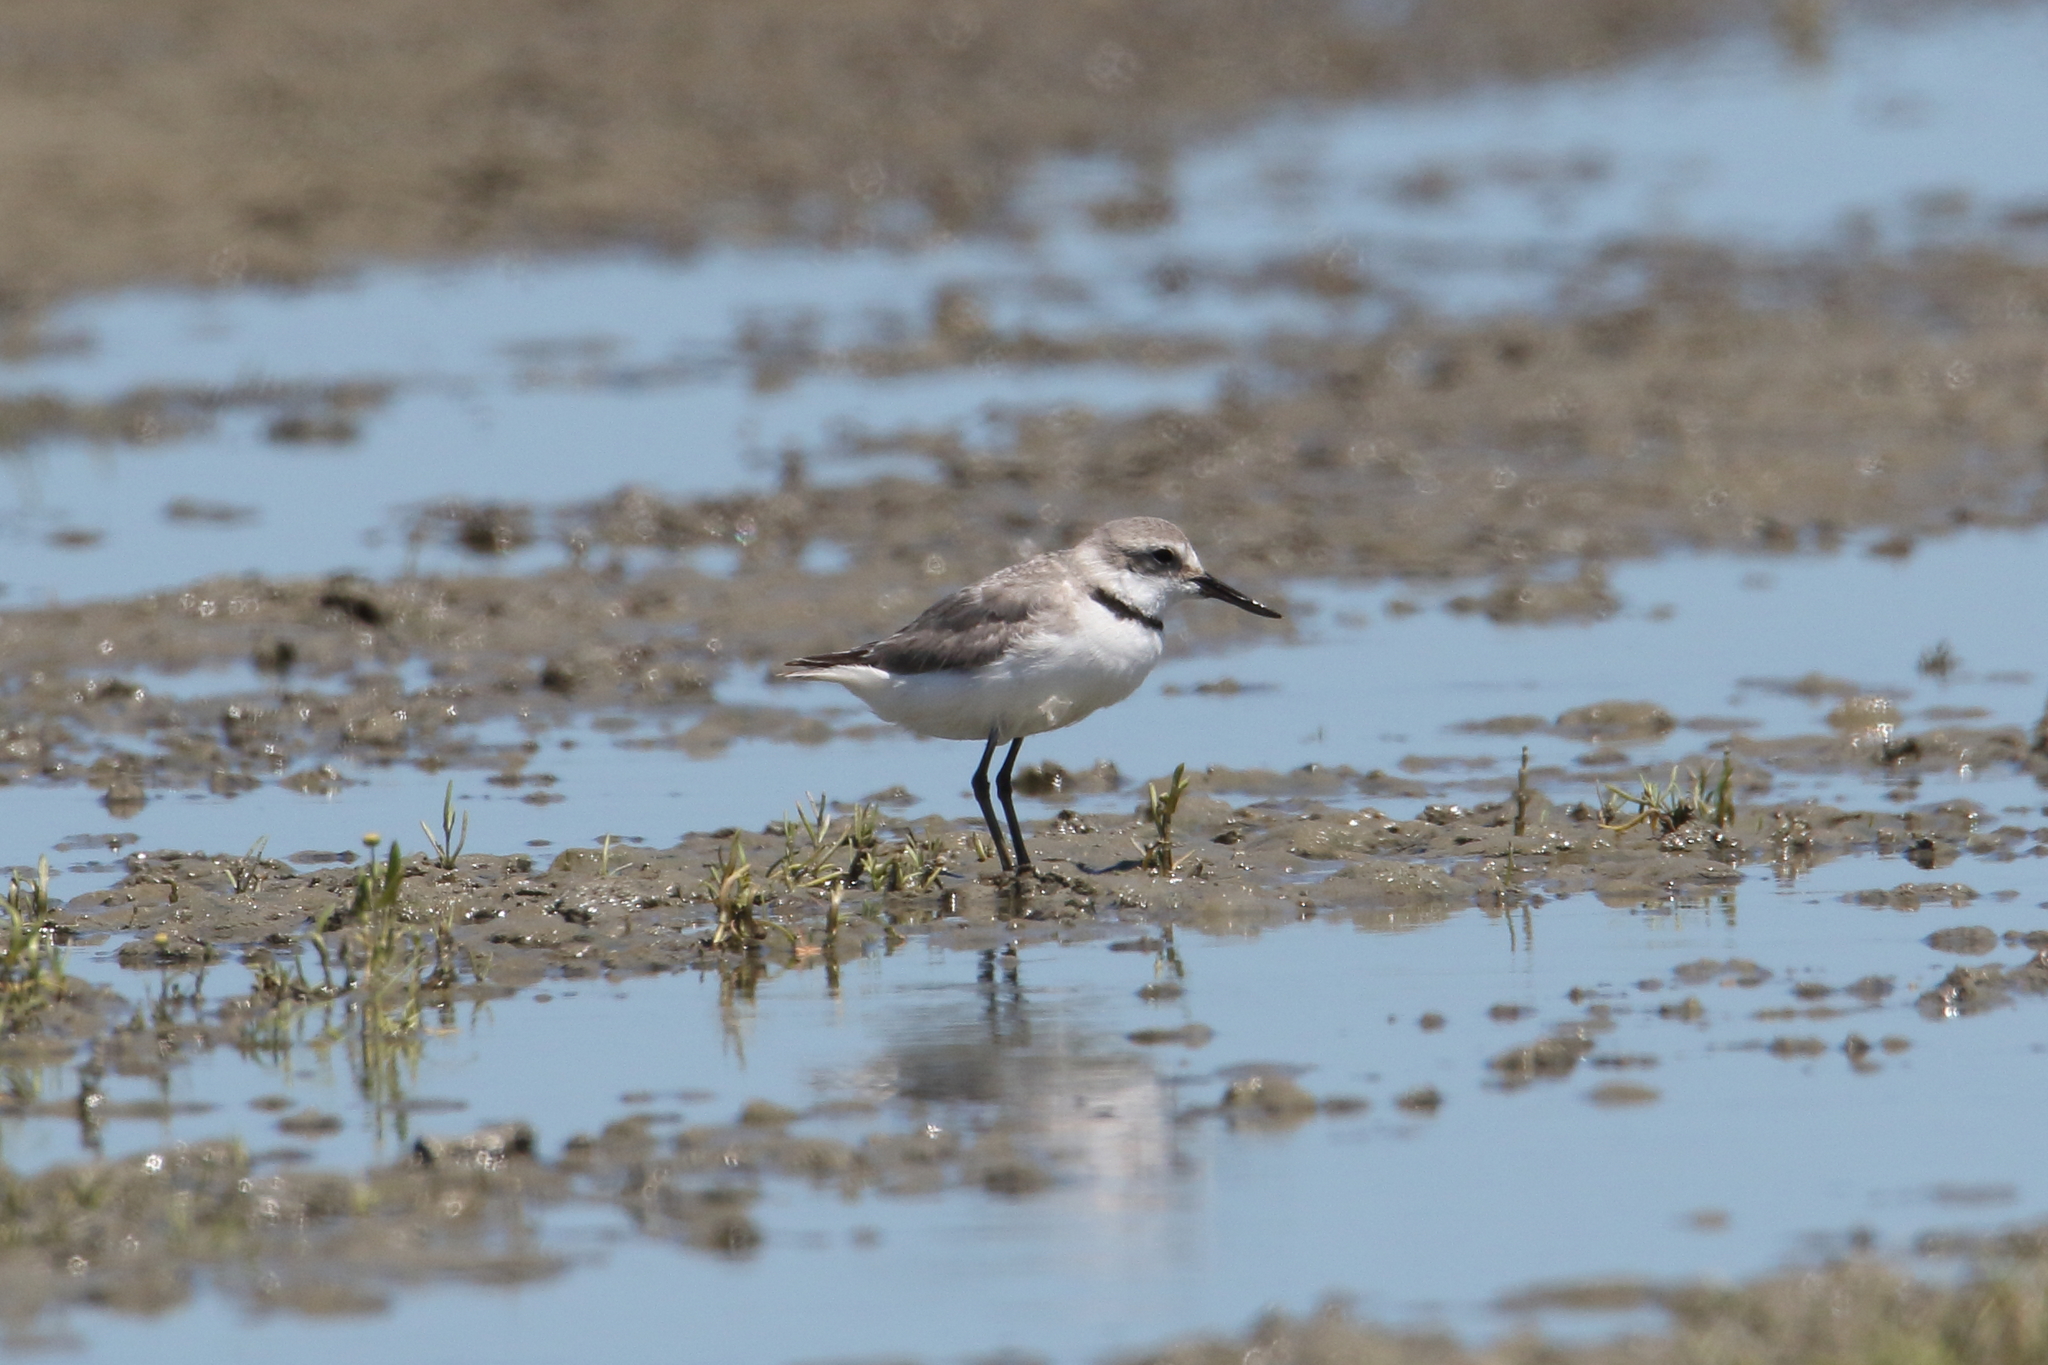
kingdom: Animalia
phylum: Chordata
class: Aves
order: Charadriiformes
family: Charadriidae
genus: Anarhynchus
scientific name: Anarhynchus frontalis
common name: Wrybill
